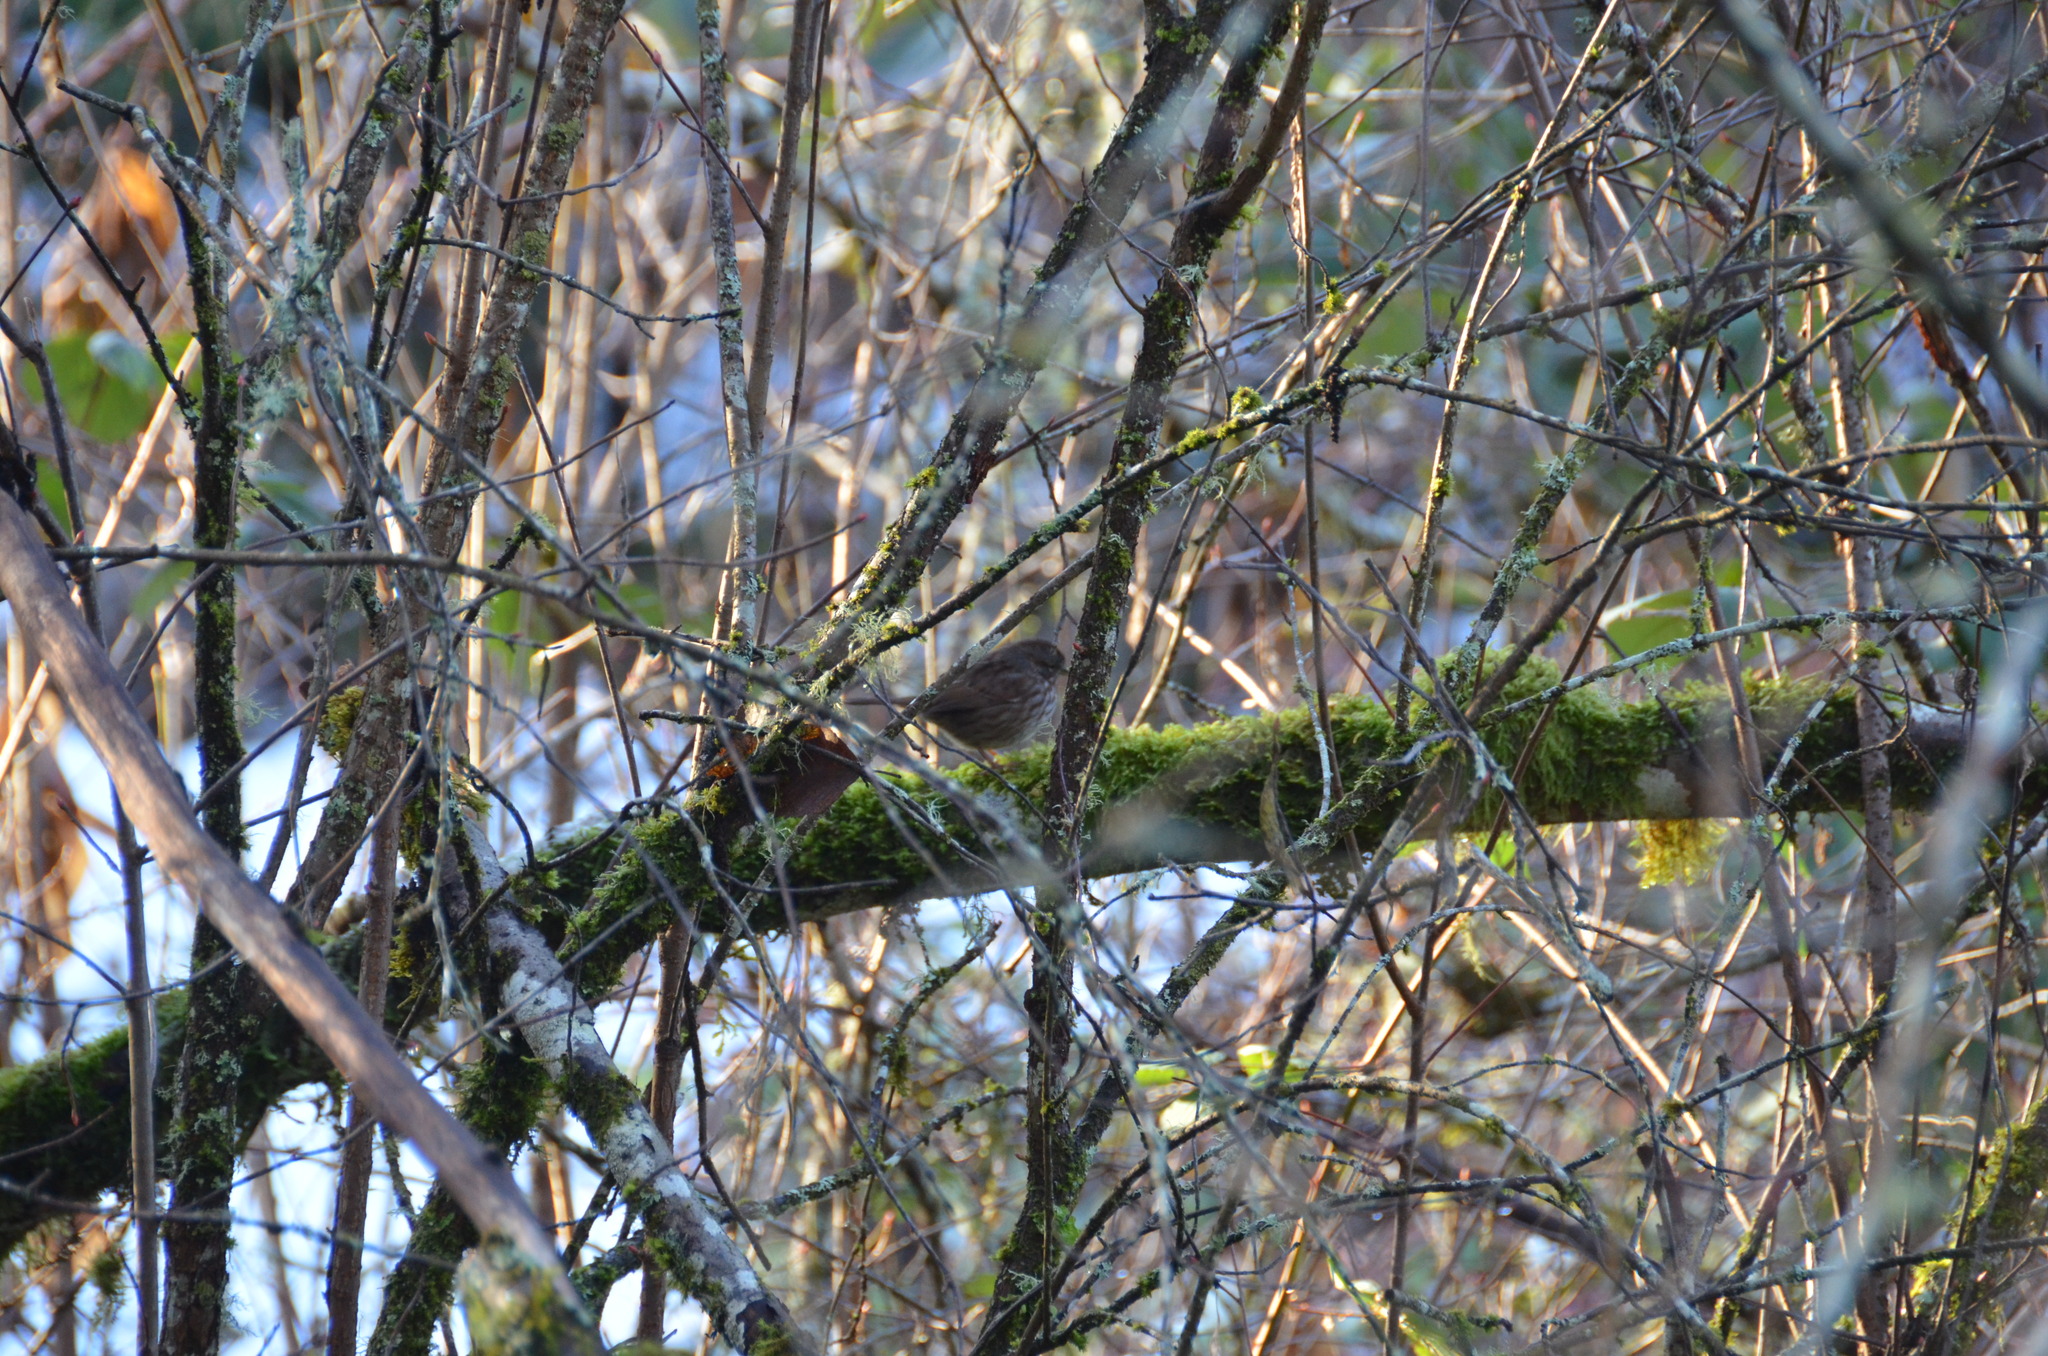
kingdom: Animalia
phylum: Chordata
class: Aves
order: Passeriformes
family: Passerellidae
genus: Melospiza
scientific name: Melospiza melodia
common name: Song sparrow
